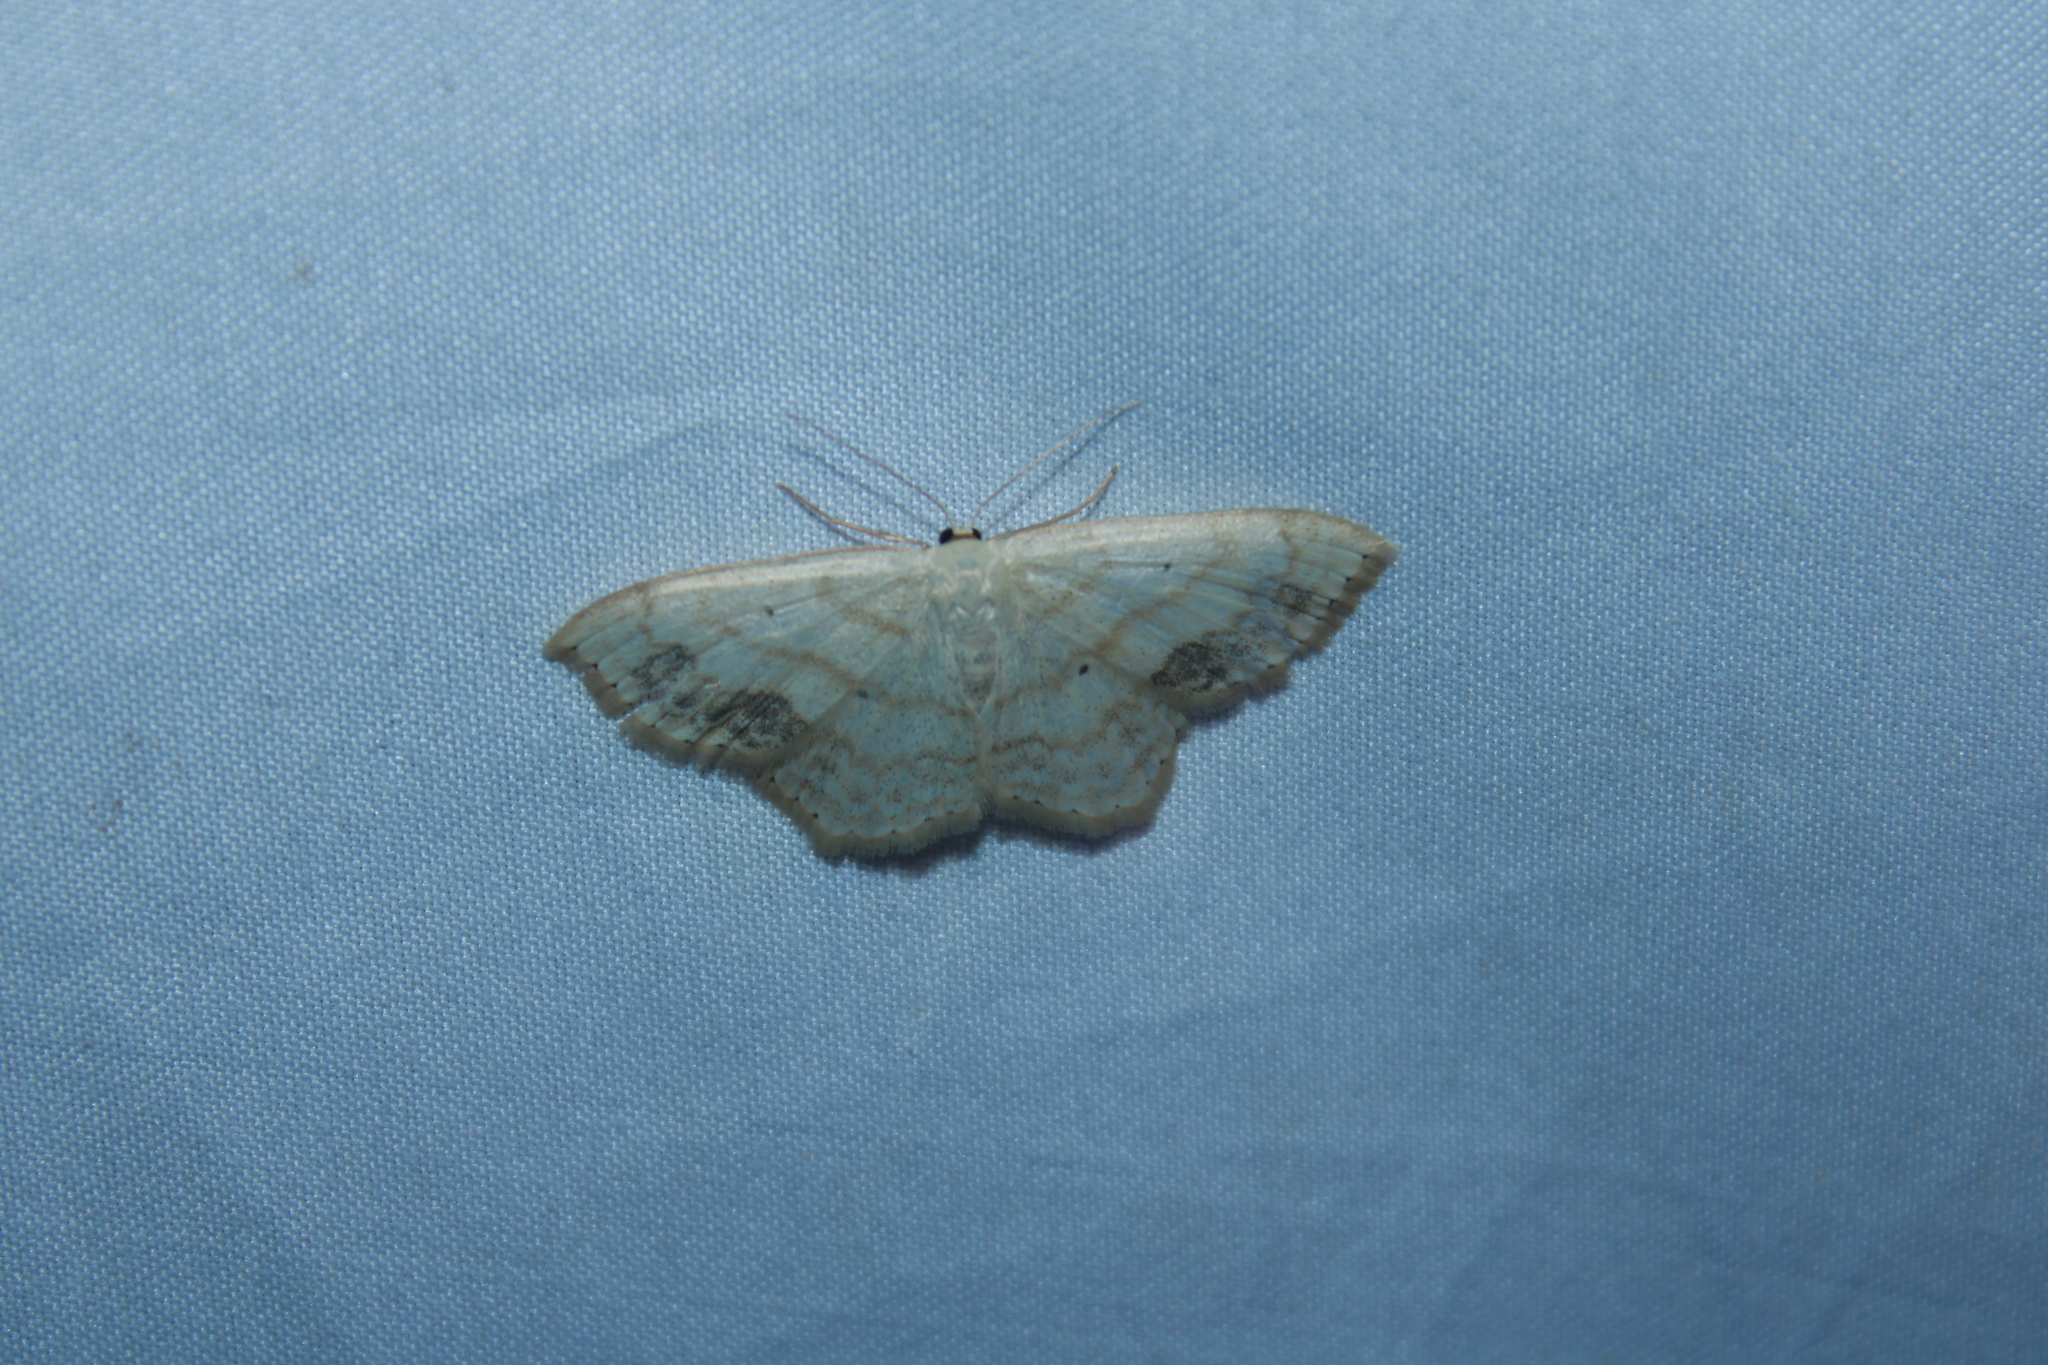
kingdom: Animalia
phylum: Arthropoda
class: Insecta
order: Lepidoptera
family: Geometridae
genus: Scopula
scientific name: Scopula limboundata
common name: Large lace border
